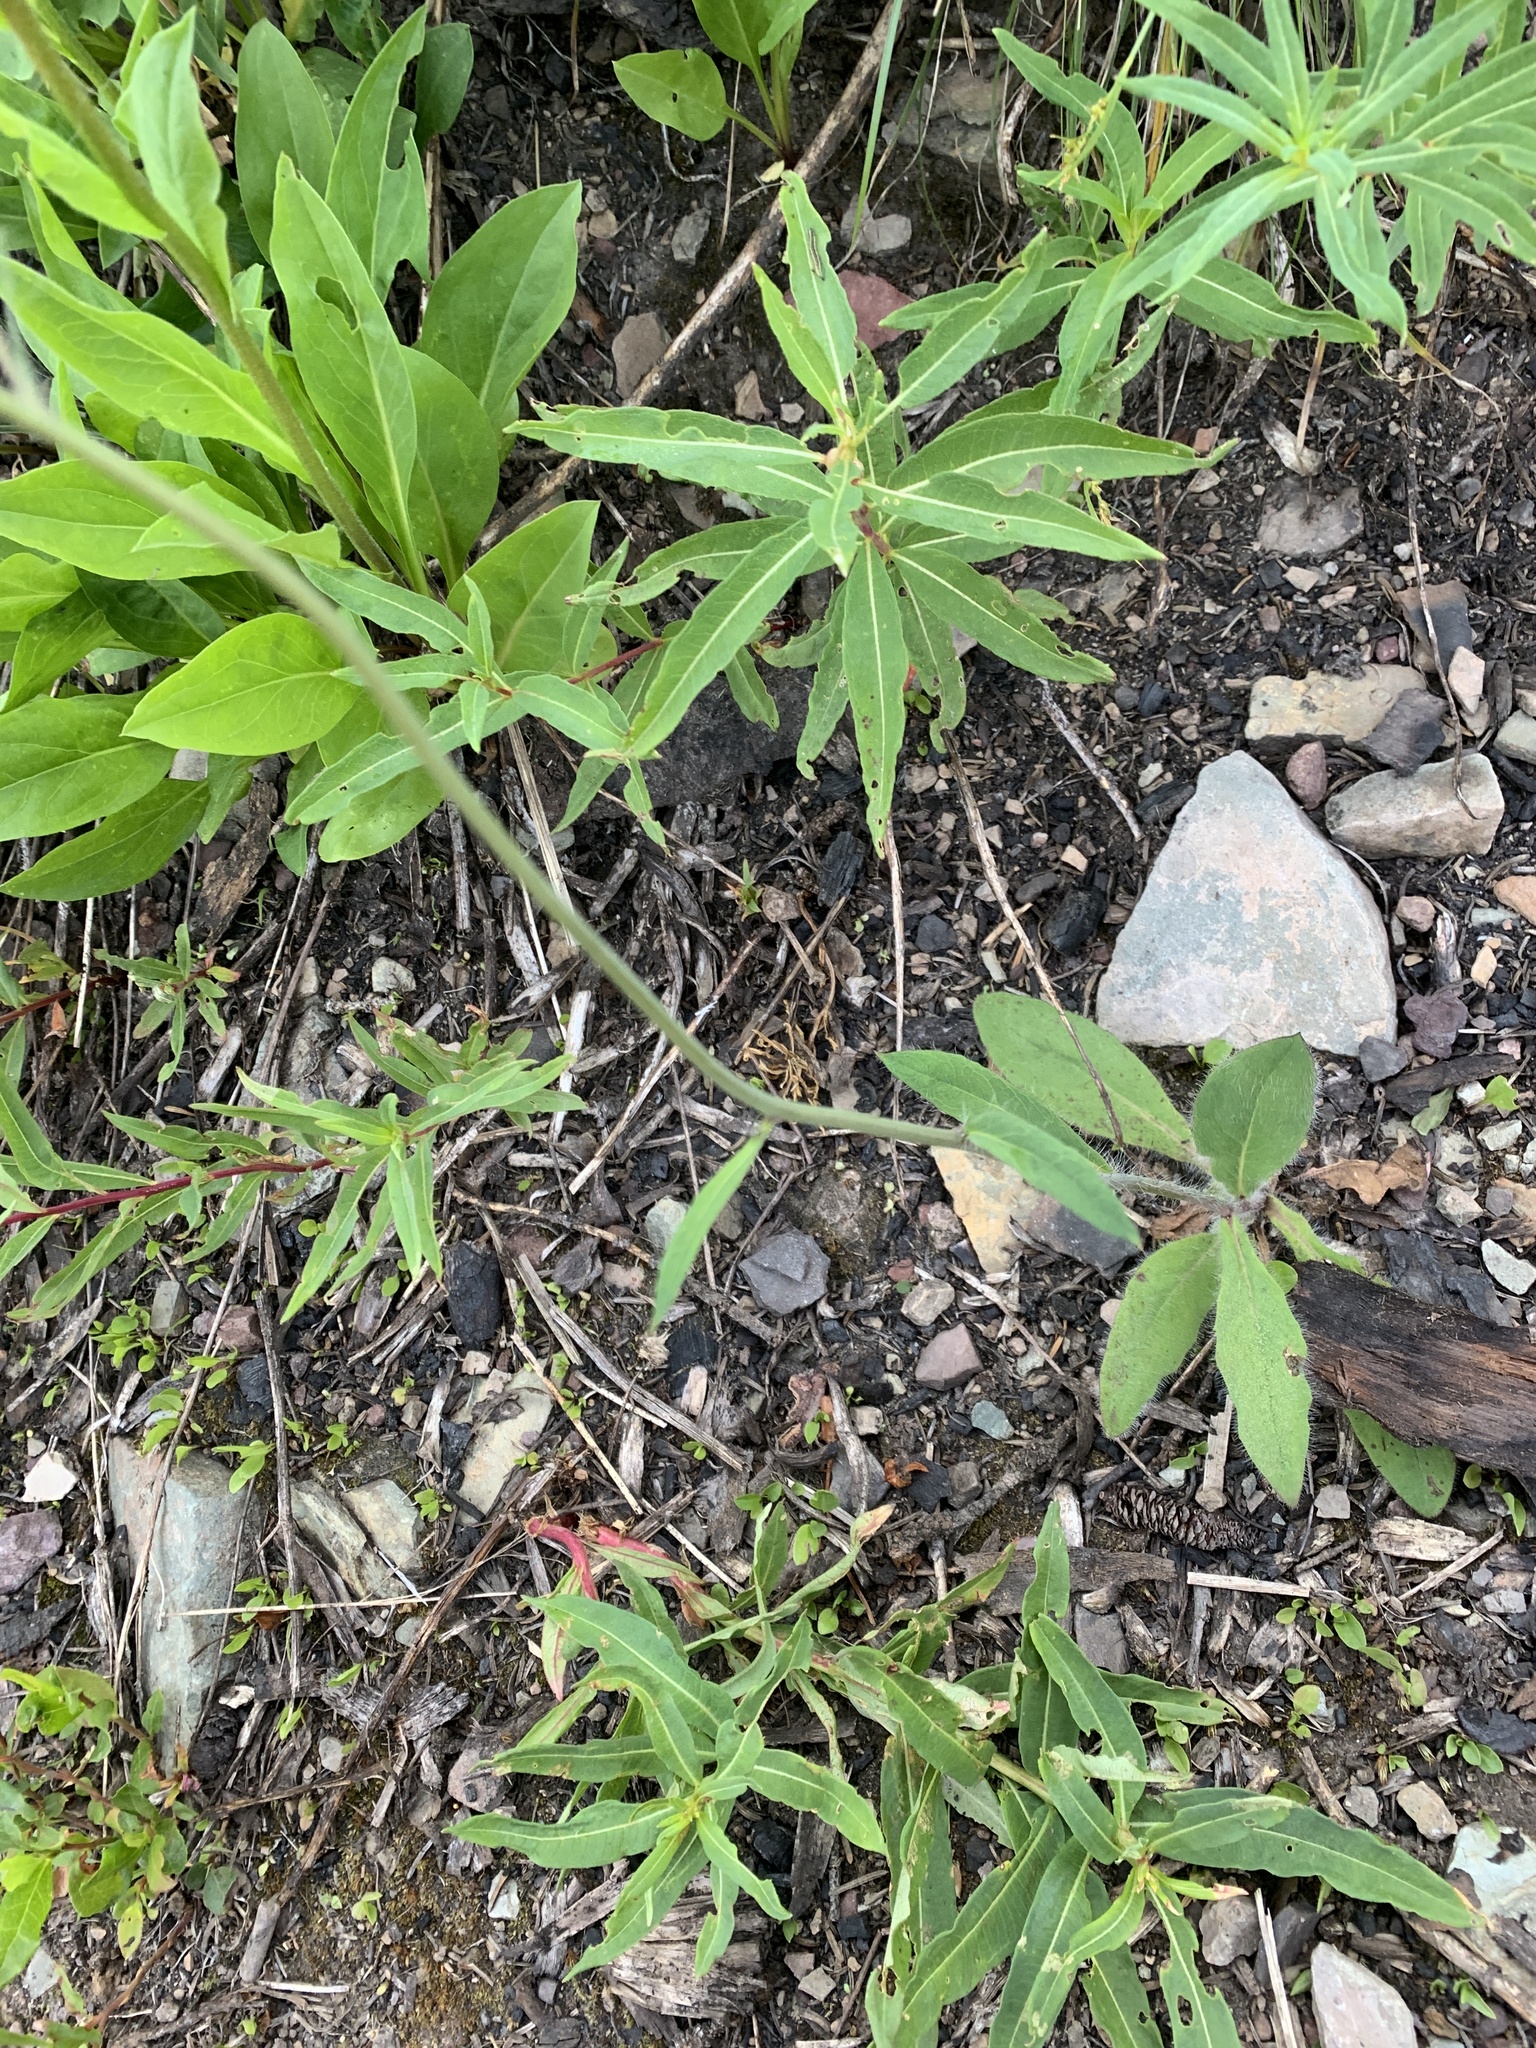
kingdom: Plantae
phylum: Tracheophyta
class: Magnoliopsida
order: Asterales
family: Asteraceae
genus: Hieracium
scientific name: Hieracium albiflorum
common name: White hawkweed
